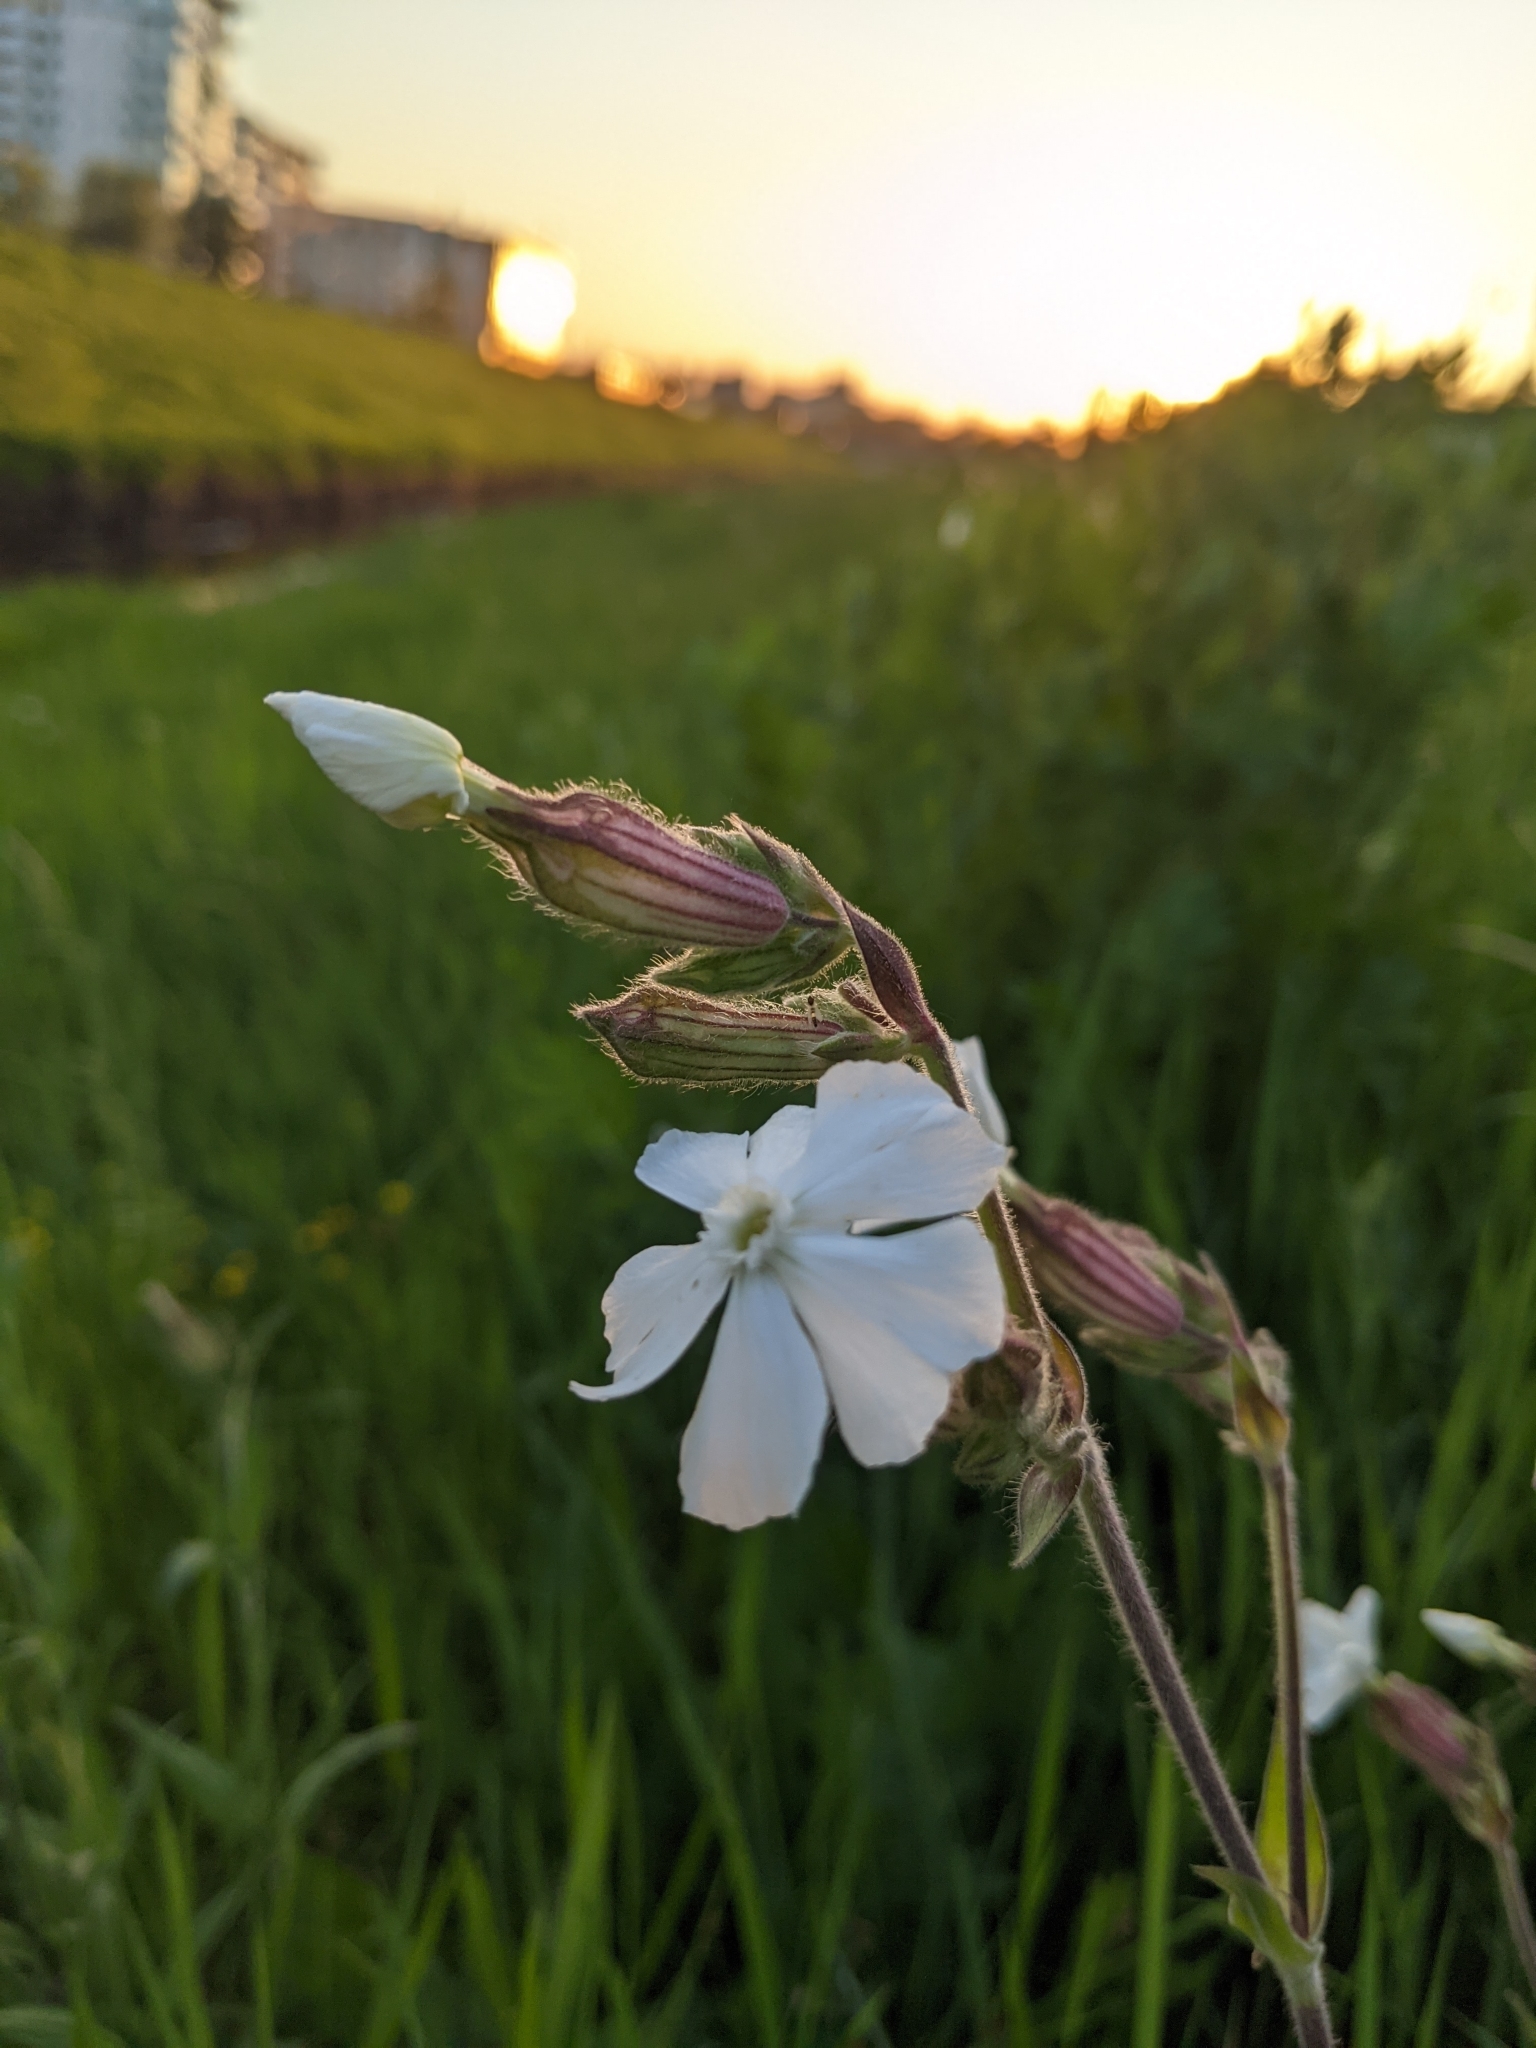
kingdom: Plantae
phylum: Tracheophyta
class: Magnoliopsida
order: Caryophyllales
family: Caryophyllaceae
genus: Silene
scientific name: Silene latifolia
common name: White campion
